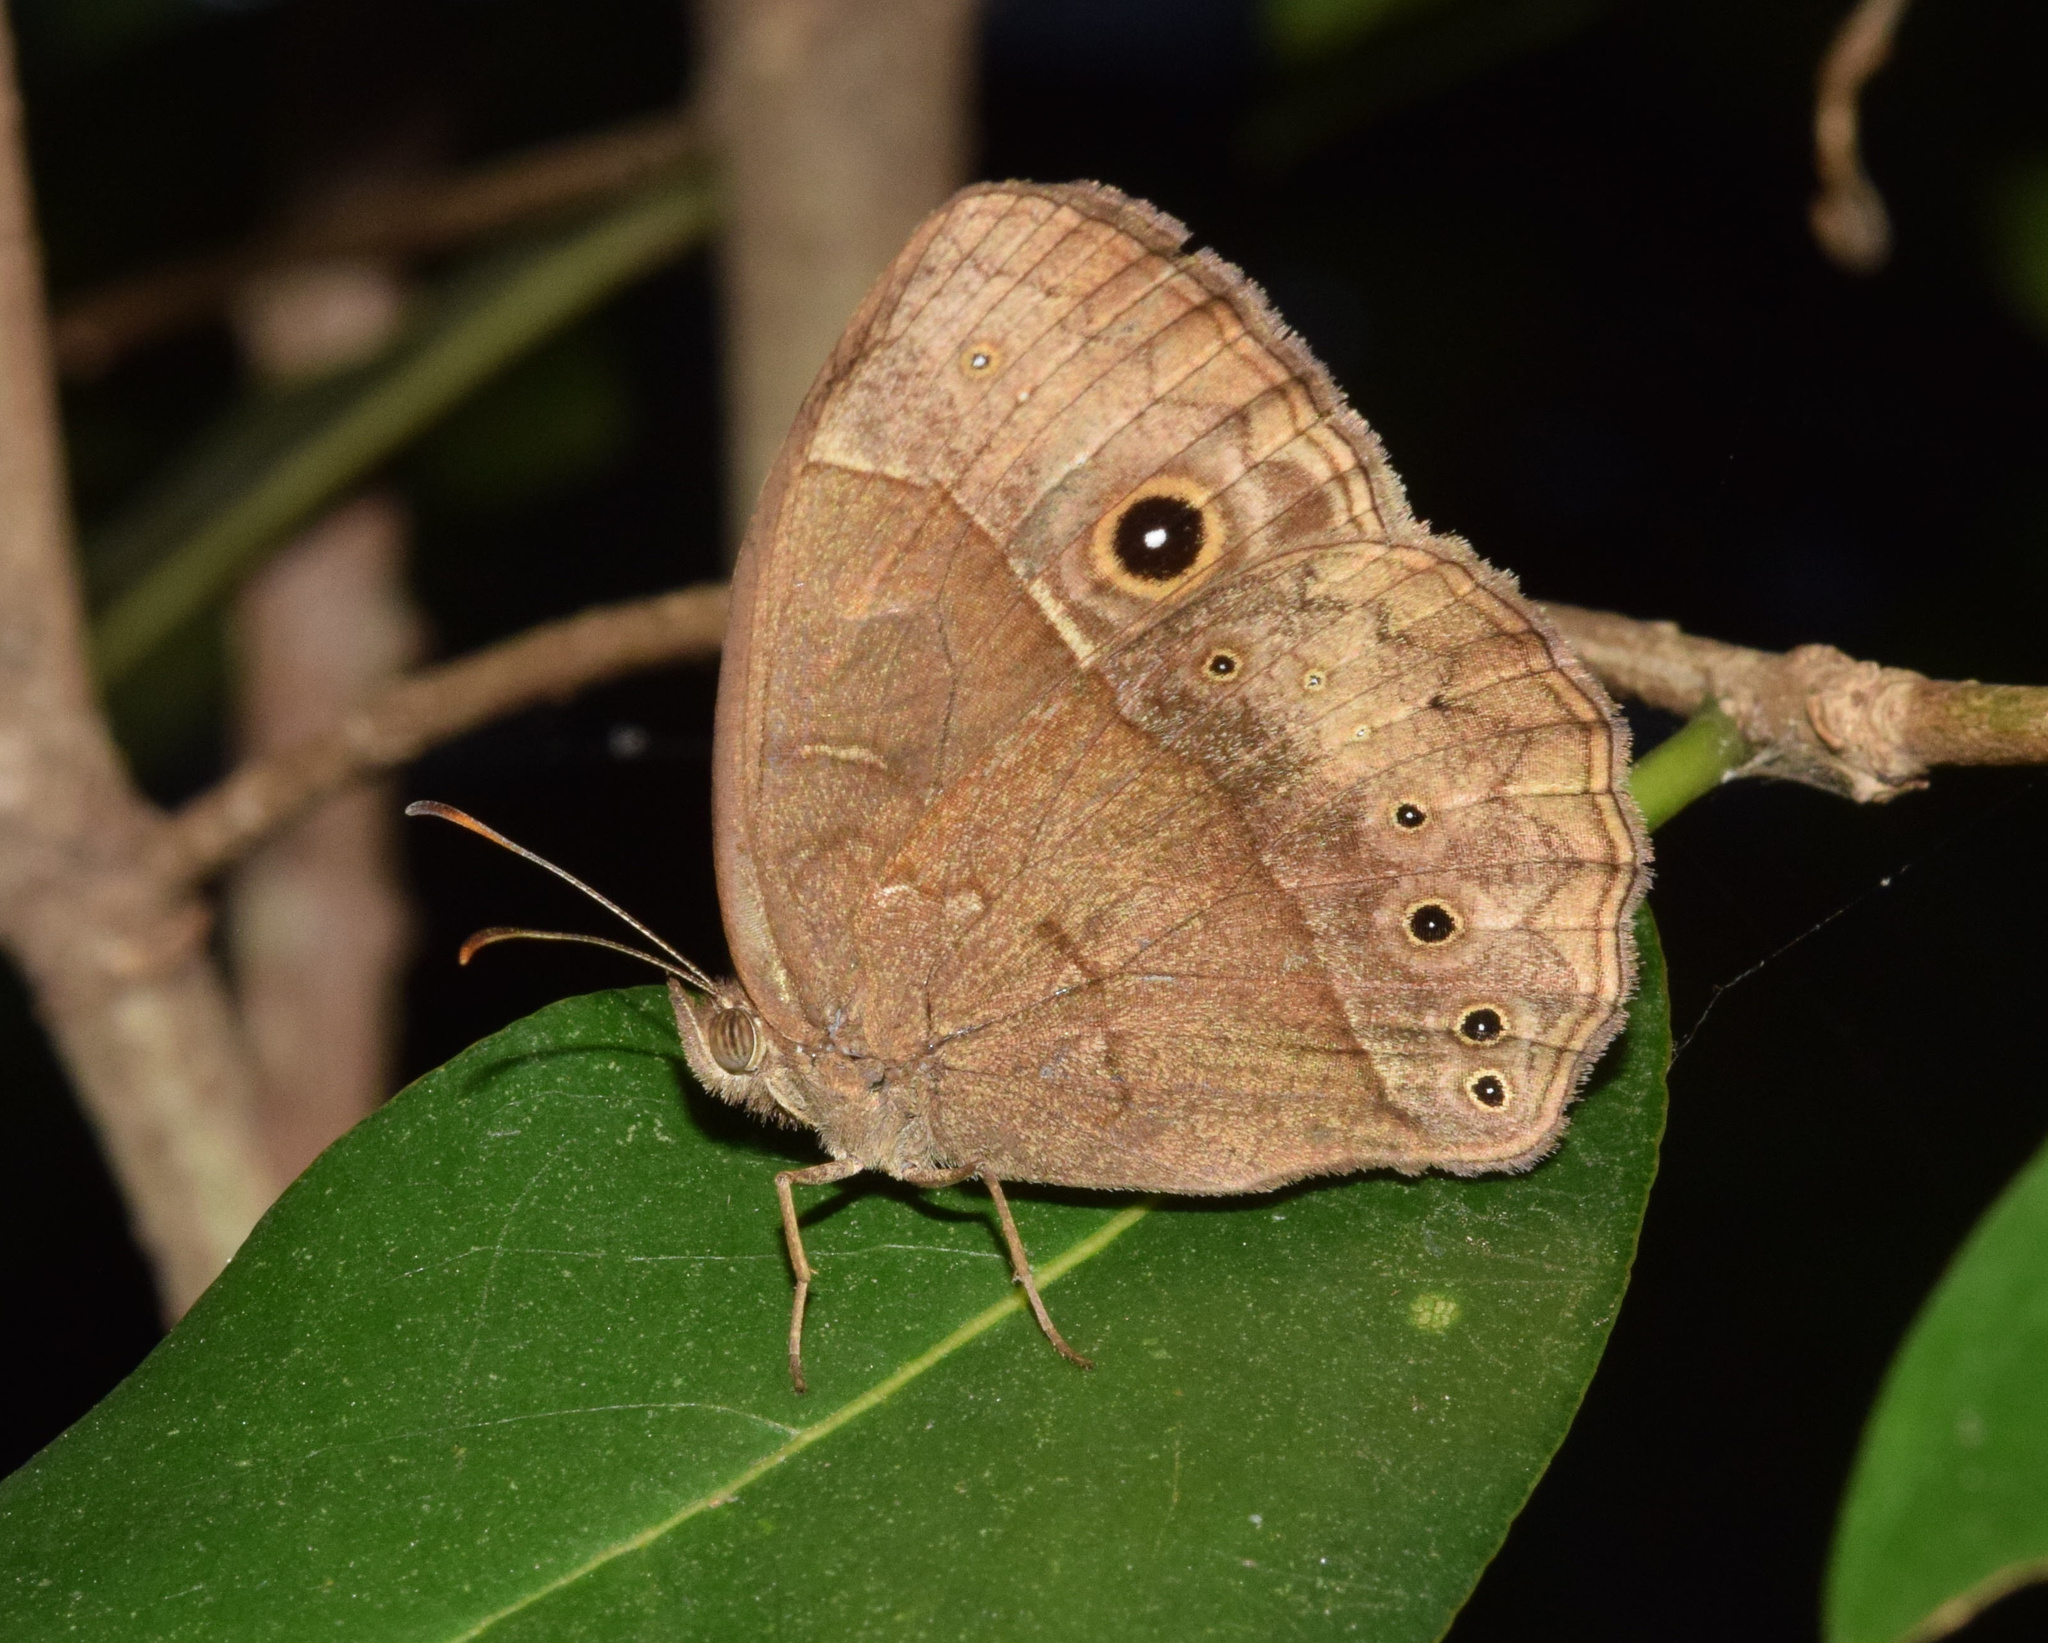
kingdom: Animalia
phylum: Arthropoda
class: Insecta
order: Lepidoptera
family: Nymphalidae
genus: Mycalesis
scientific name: Mycalesis rhacotis
